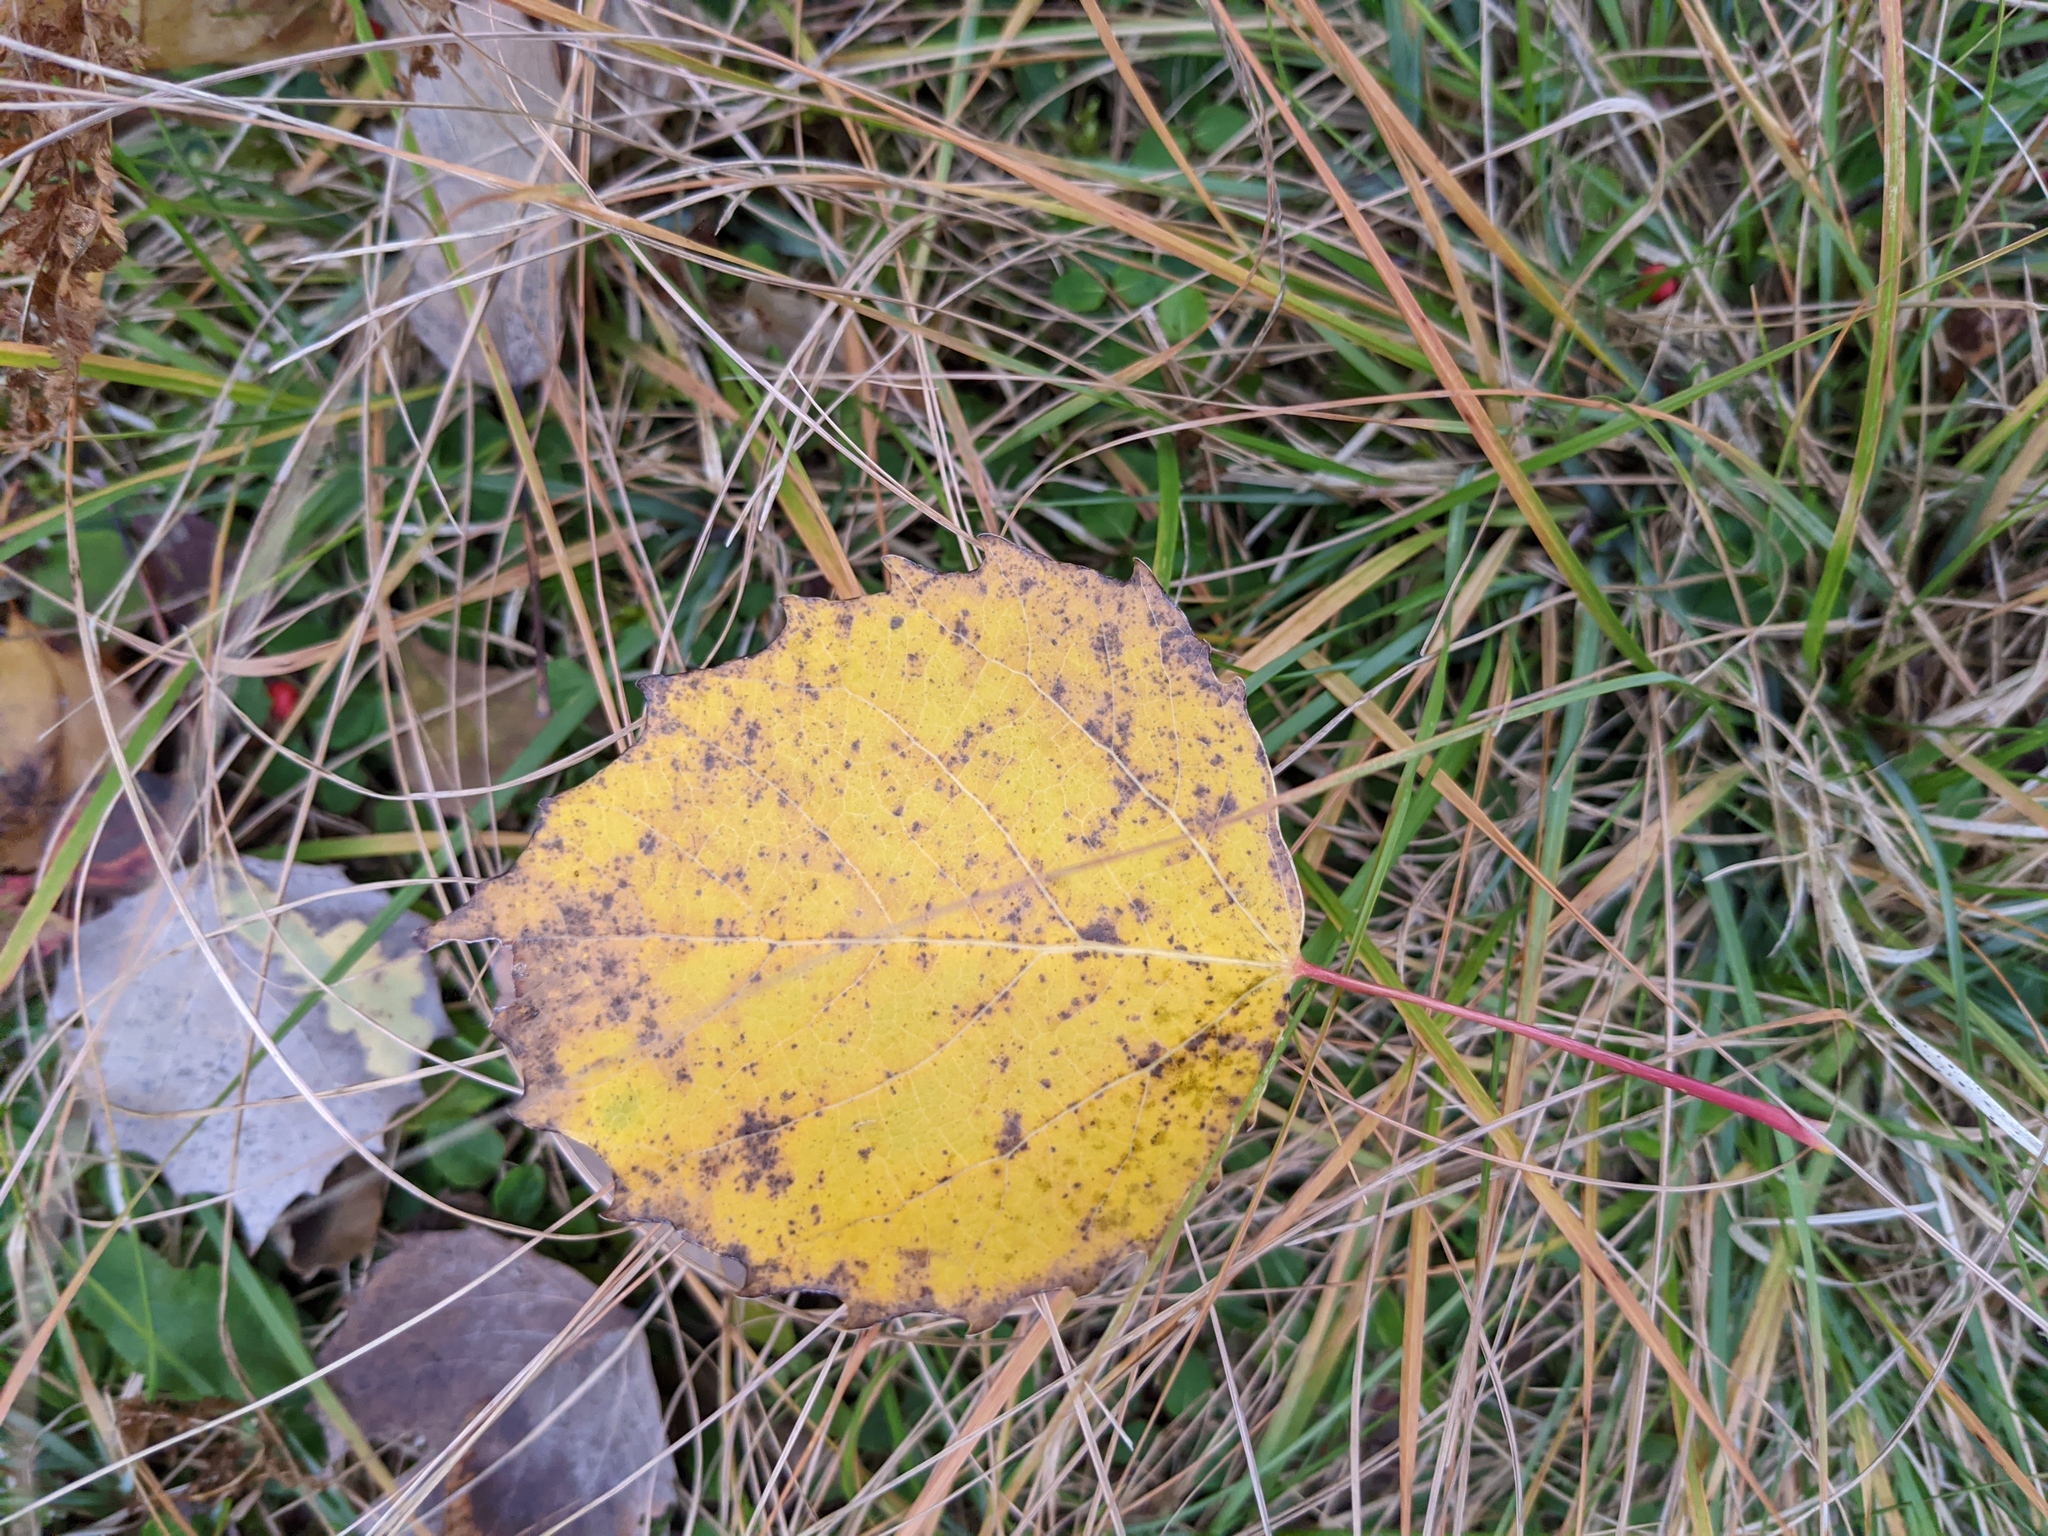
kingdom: Plantae
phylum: Tracheophyta
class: Magnoliopsida
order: Malpighiales
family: Salicaceae
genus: Populus
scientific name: Populus grandidentata
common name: Bigtooth aspen
